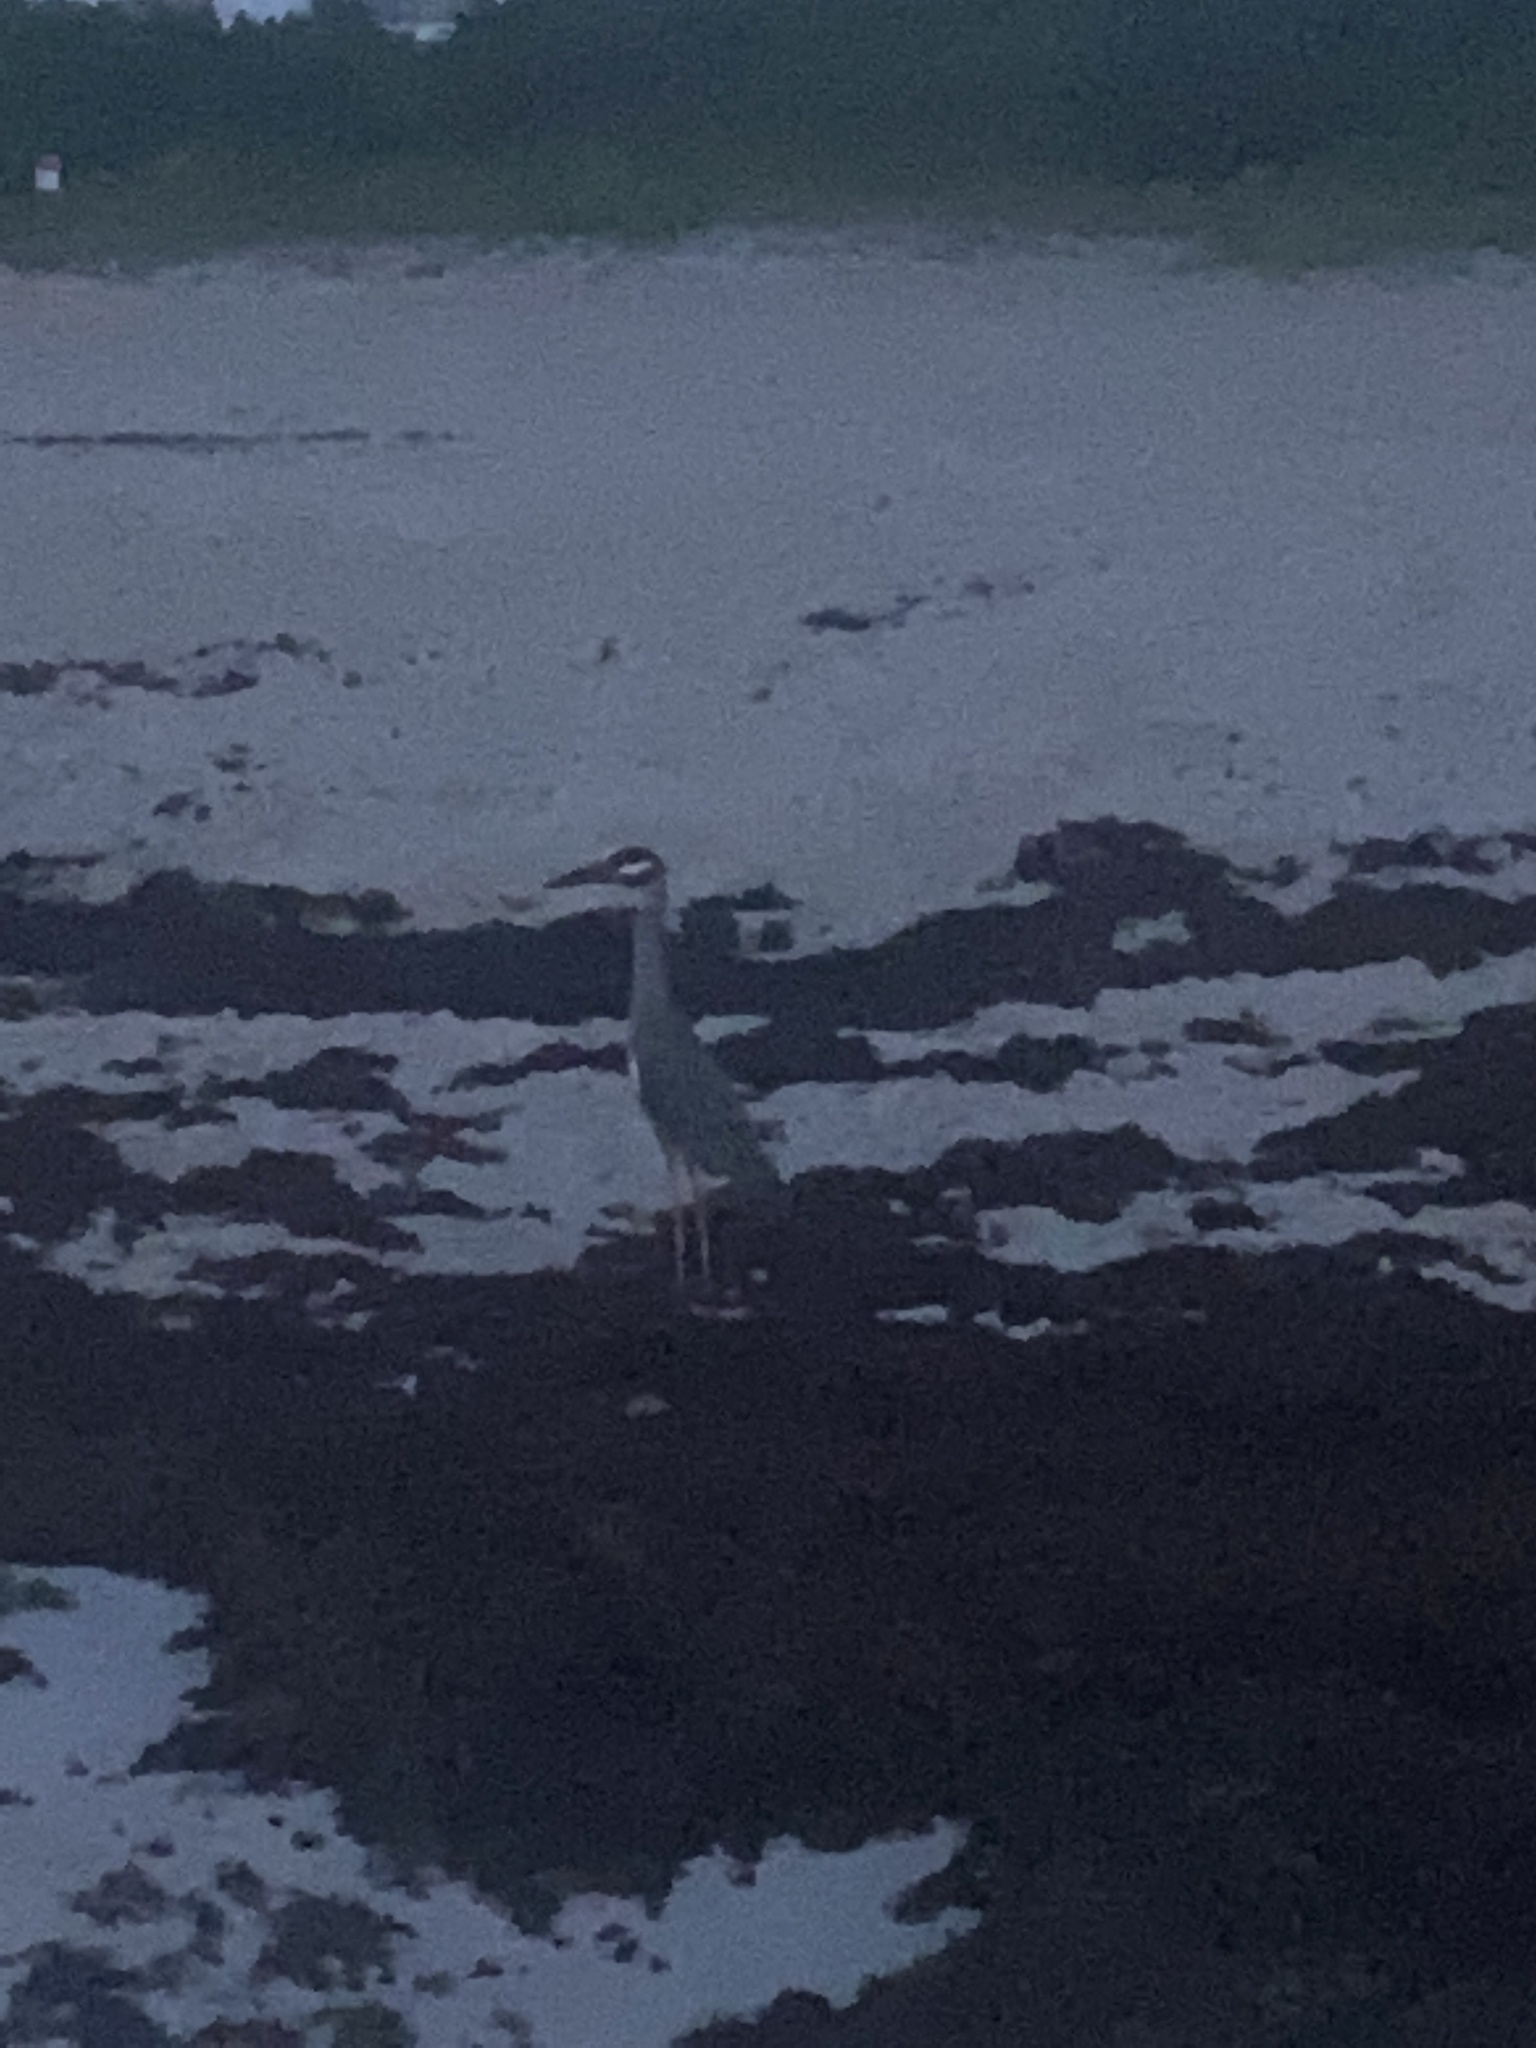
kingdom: Animalia
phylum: Chordata
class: Aves
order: Pelecaniformes
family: Ardeidae
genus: Nyctanassa
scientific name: Nyctanassa violacea
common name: Yellow-crowned night heron
